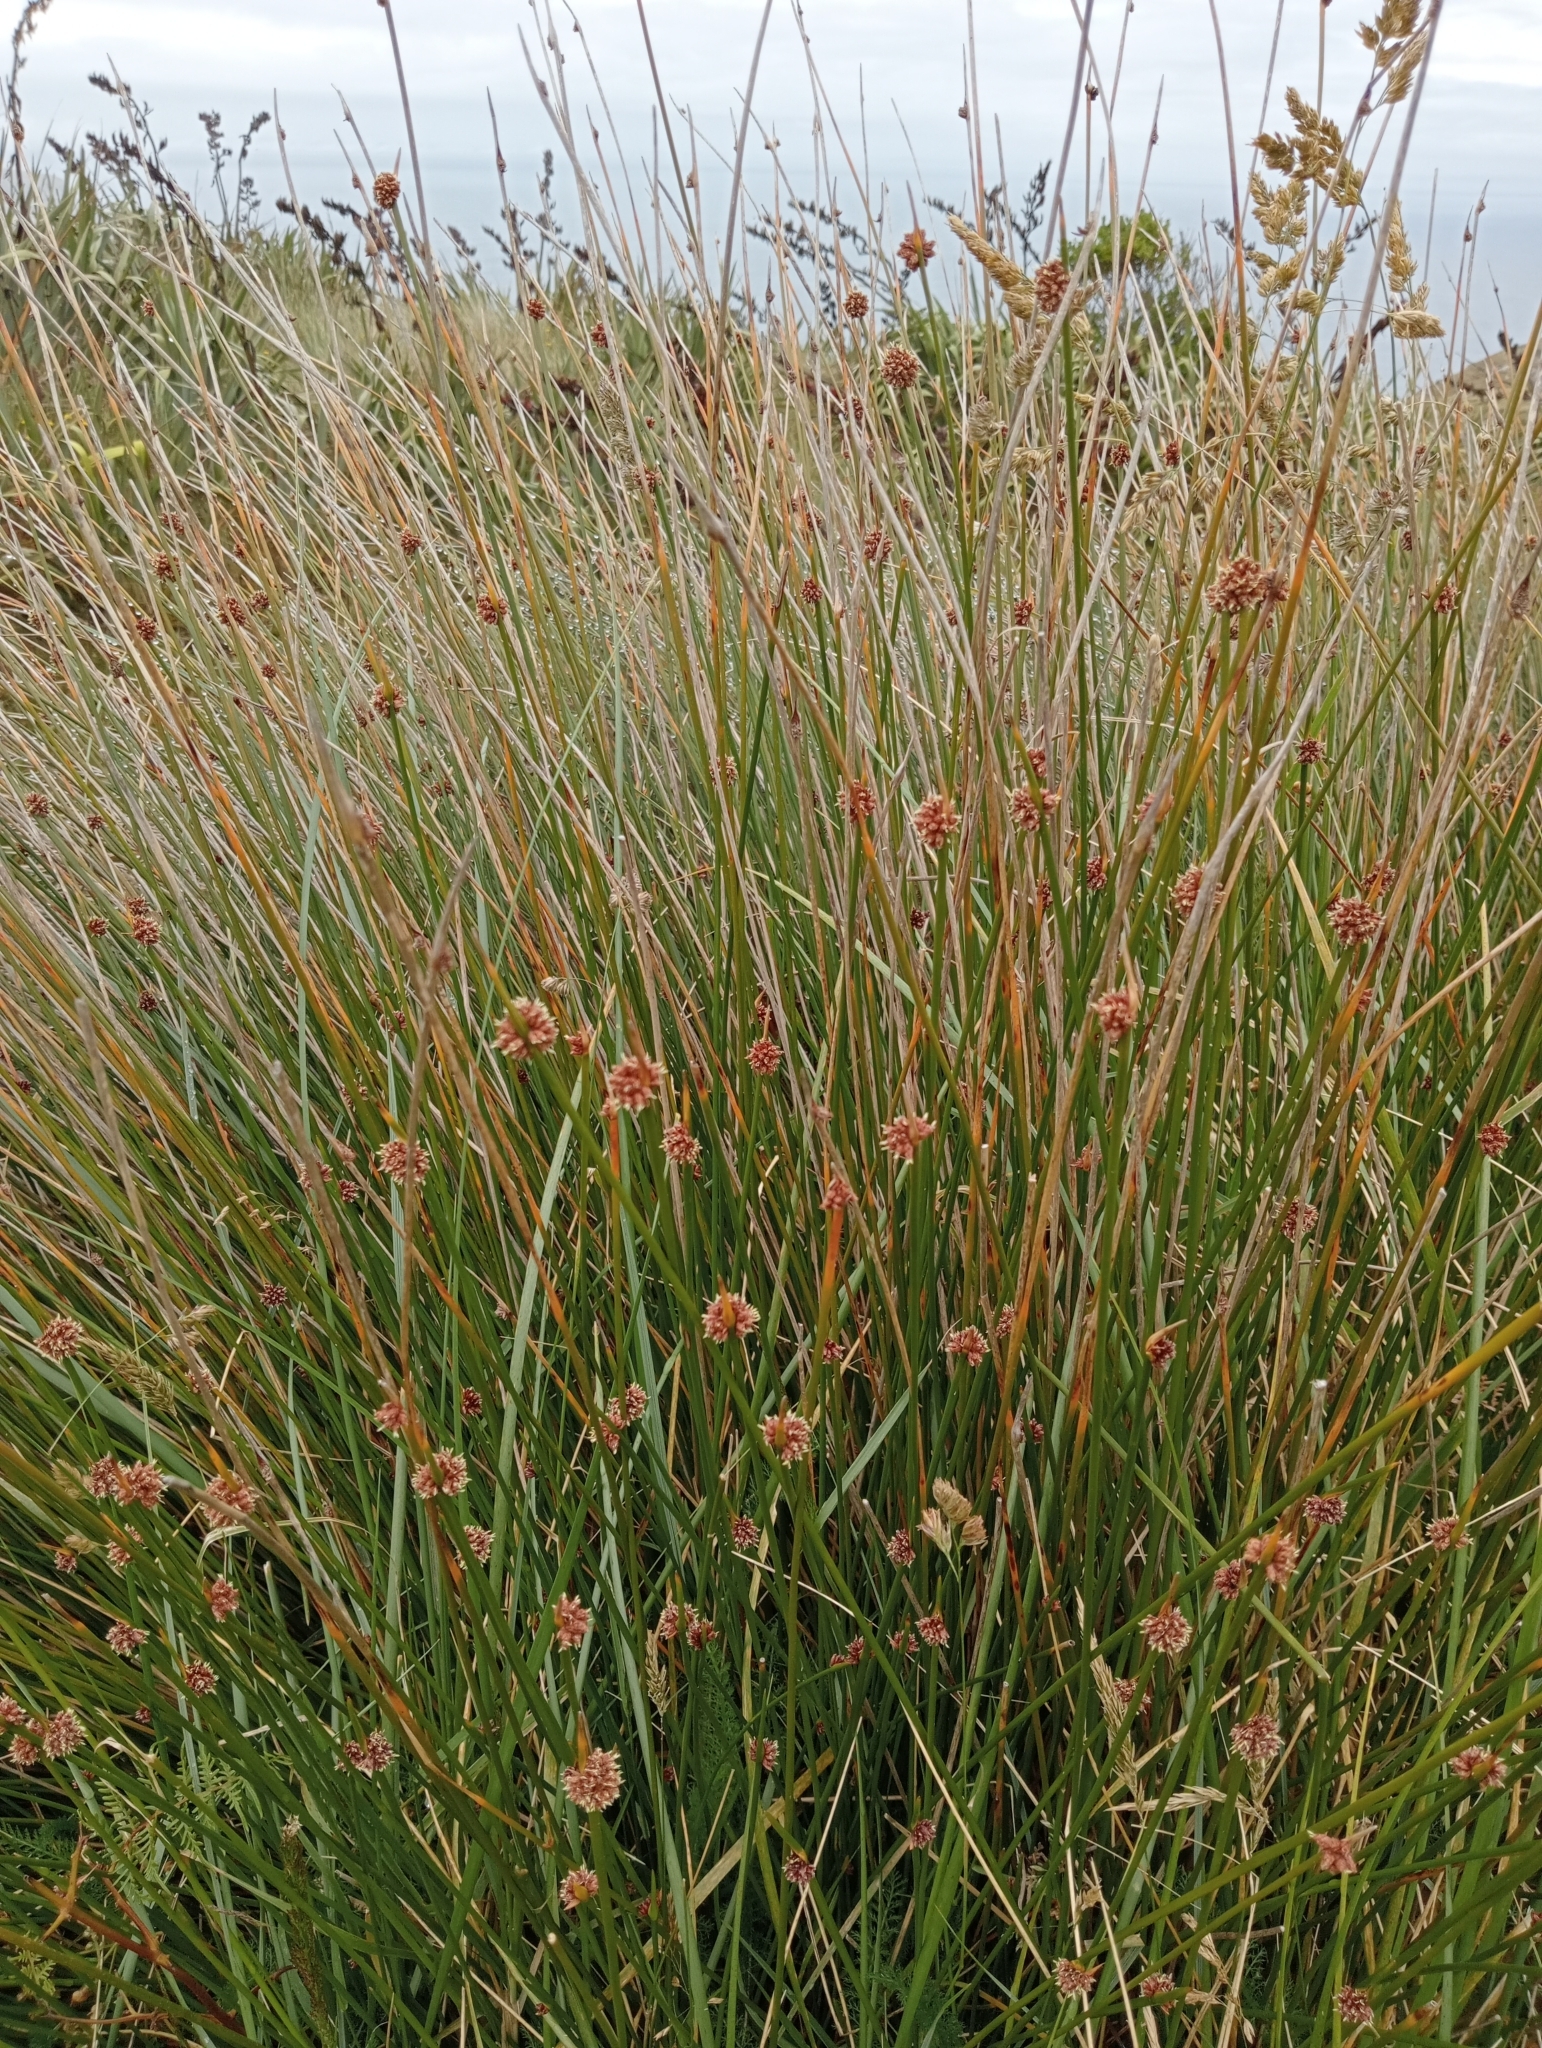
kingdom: Plantae
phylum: Tracheophyta
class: Liliopsida
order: Poales
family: Cyperaceae
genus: Ficinia
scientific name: Ficinia nodosa
